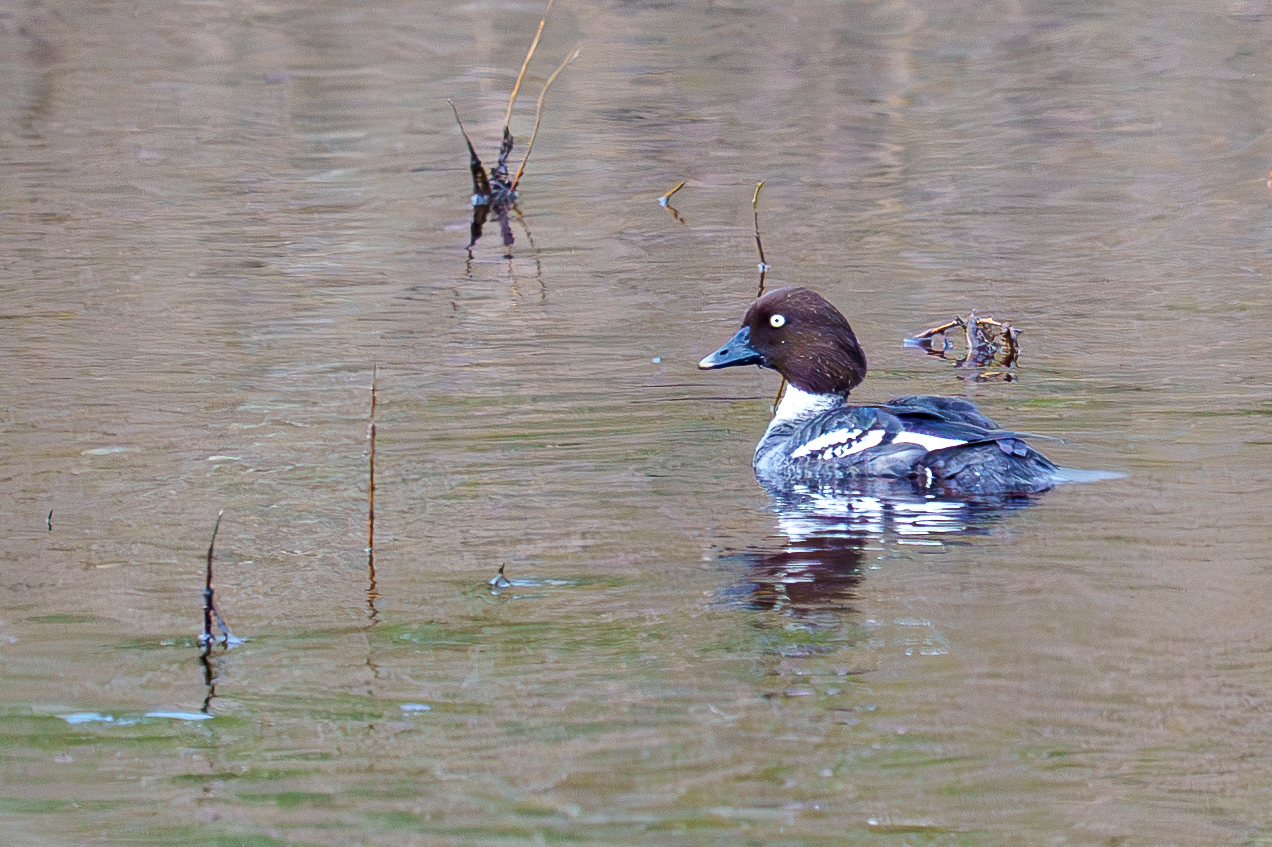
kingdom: Animalia
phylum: Chordata
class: Aves
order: Anseriformes
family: Anatidae
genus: Bucephala
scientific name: Bucephala clangula
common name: Common goldeneye
